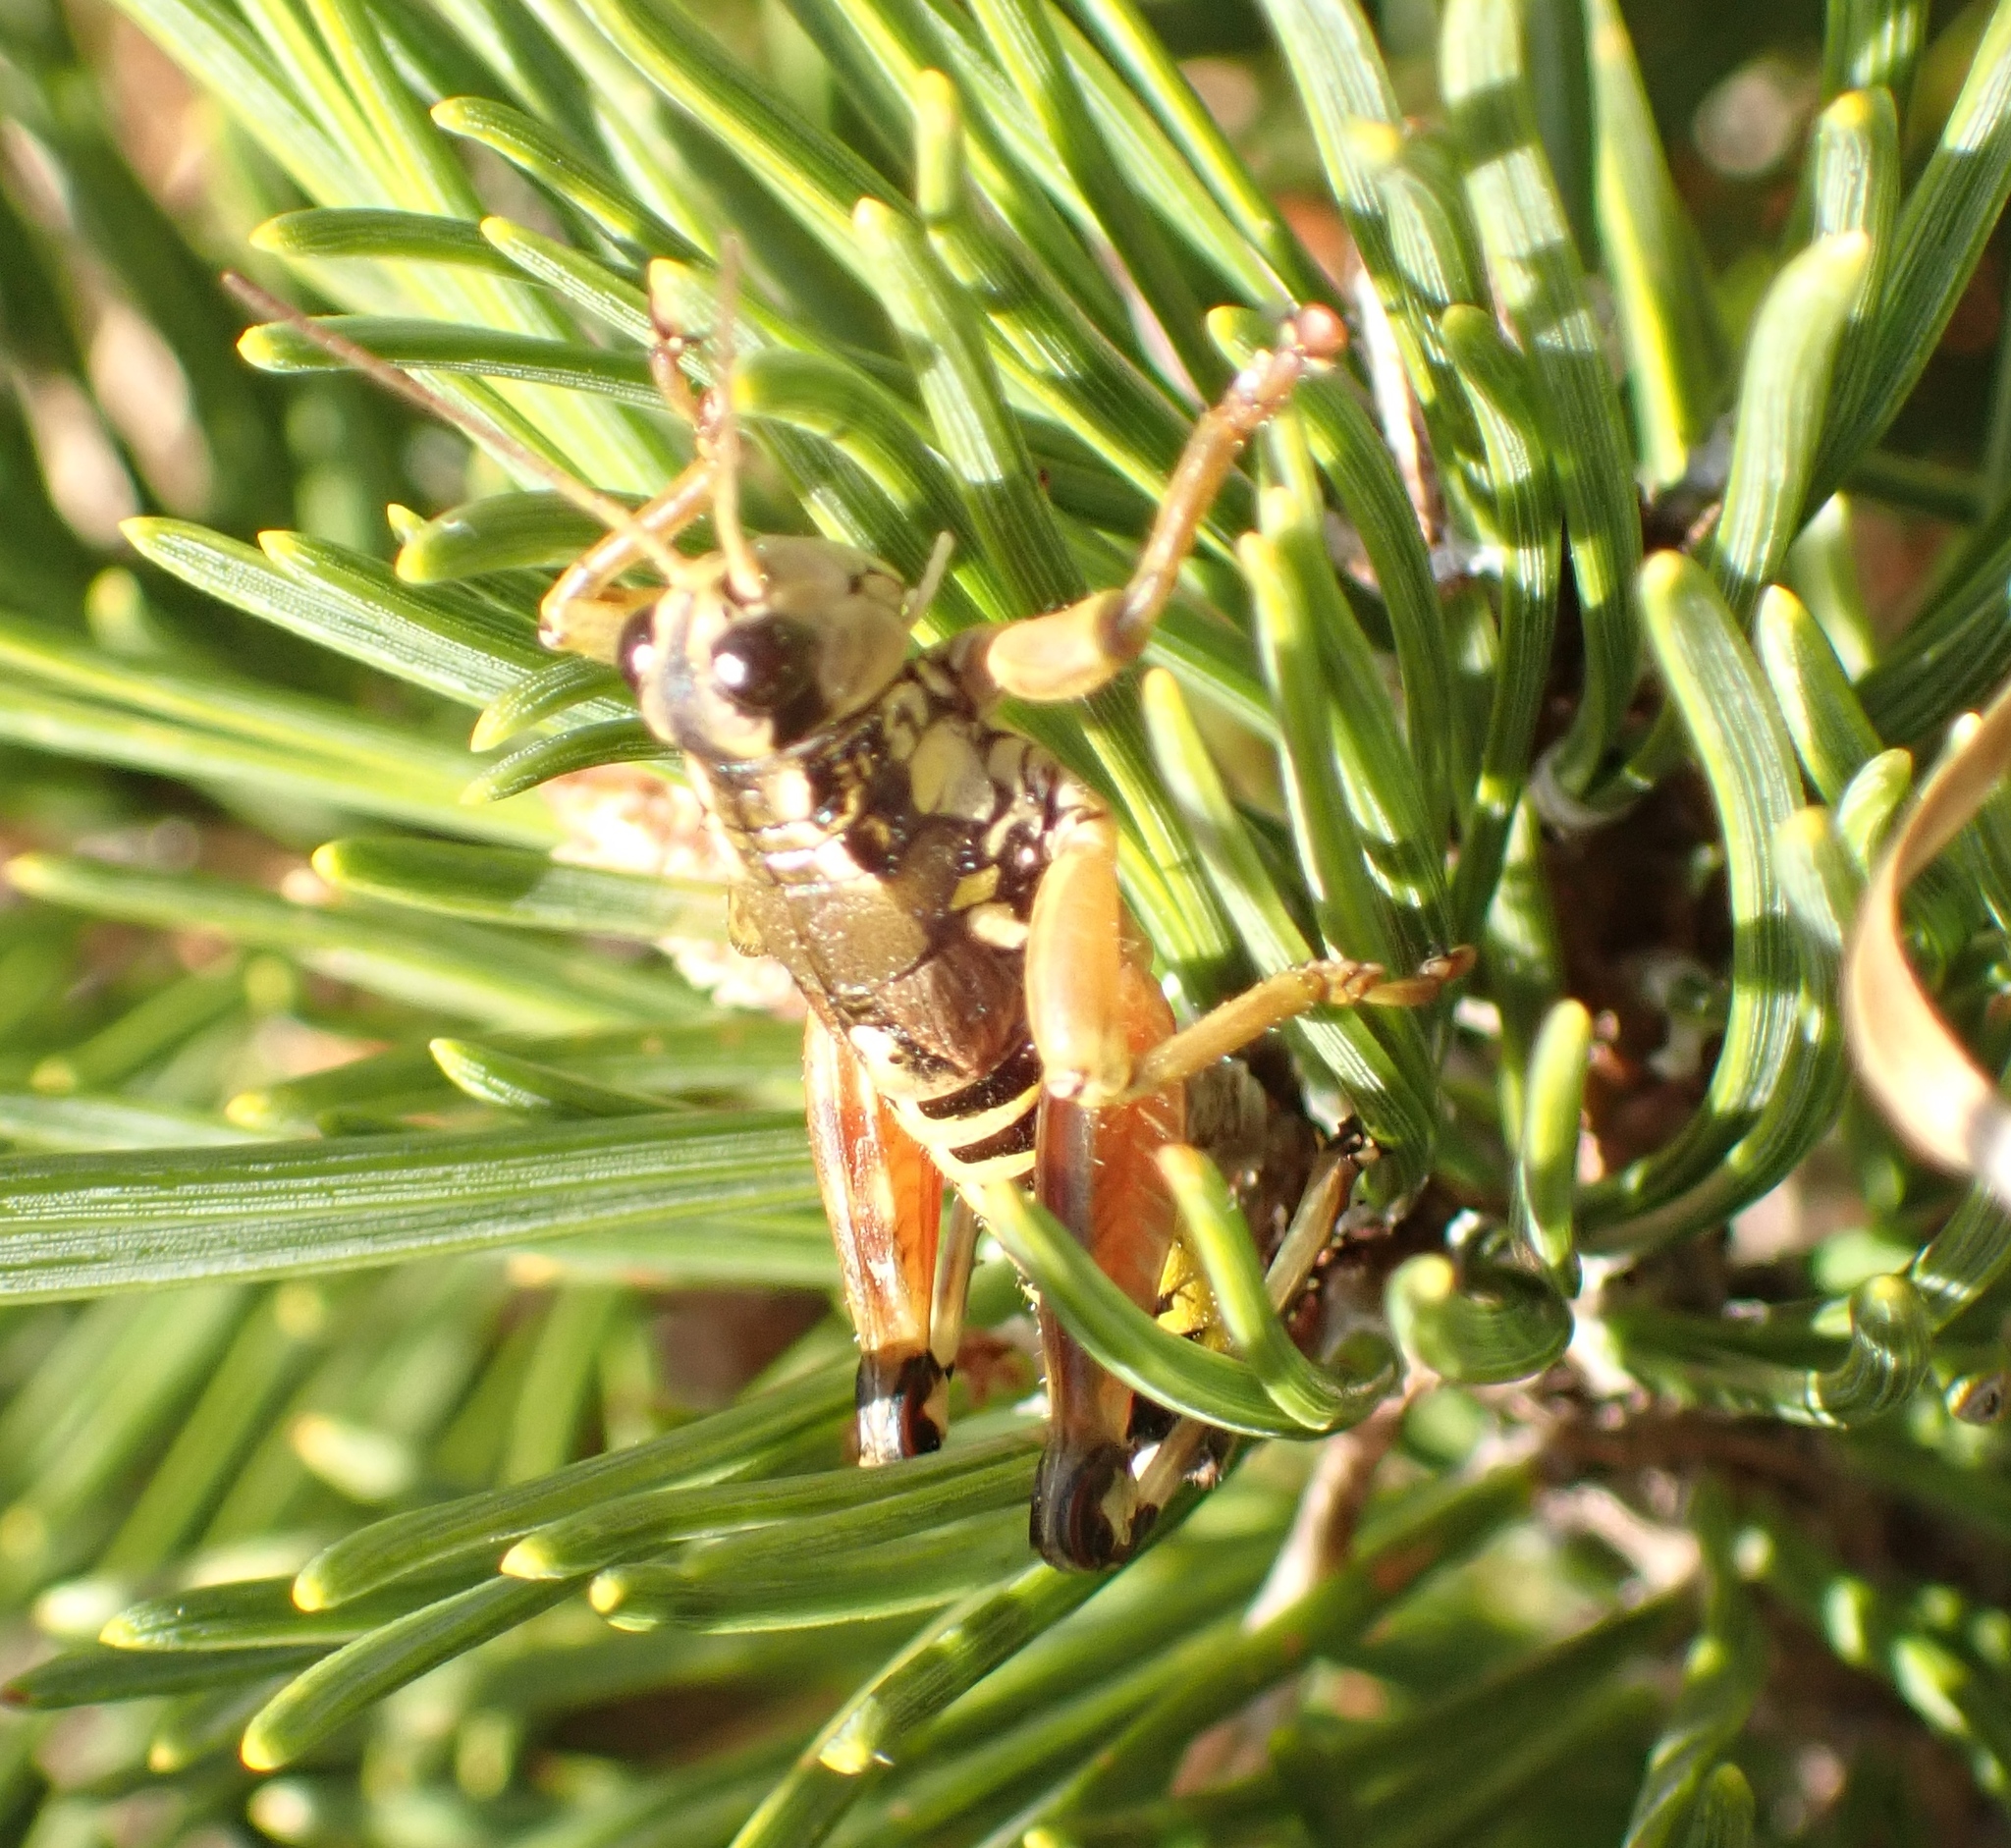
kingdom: Animalia
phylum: Arthropoda
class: Insecta
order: Orthoptera
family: Acrididae
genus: Podisma
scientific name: Podisma pedestris
